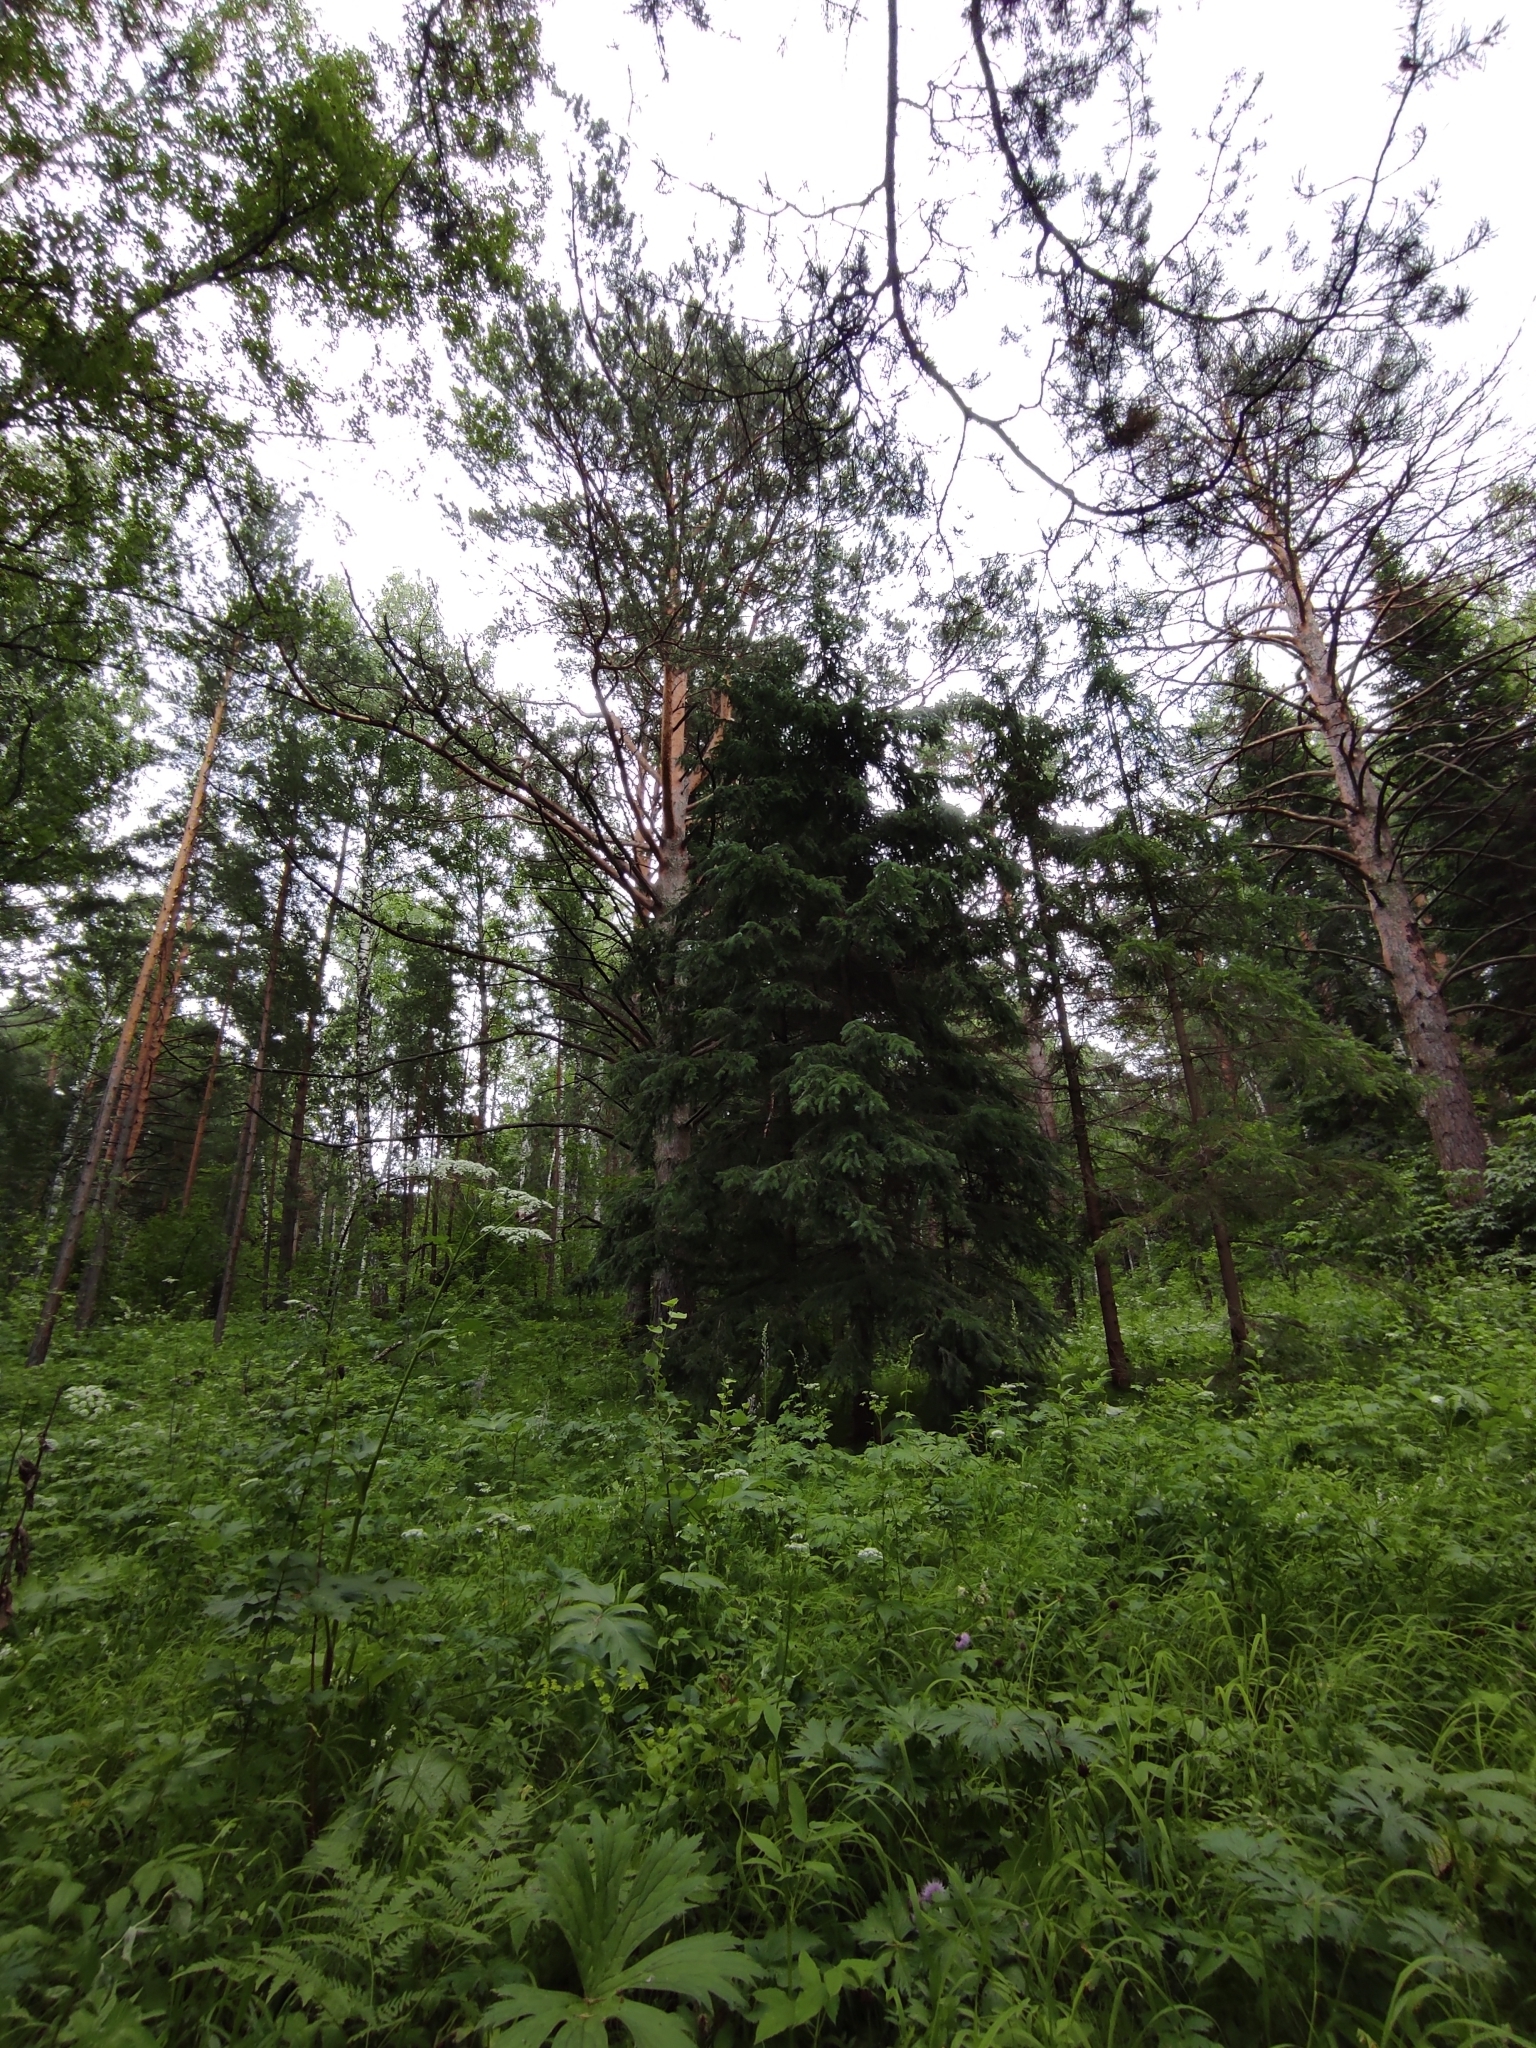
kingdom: Plantae
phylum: Tracheophyta
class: Pinopsida
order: Pinales
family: Pinaceae
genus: Pinus
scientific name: Pinus sylvestris
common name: Scots pine
